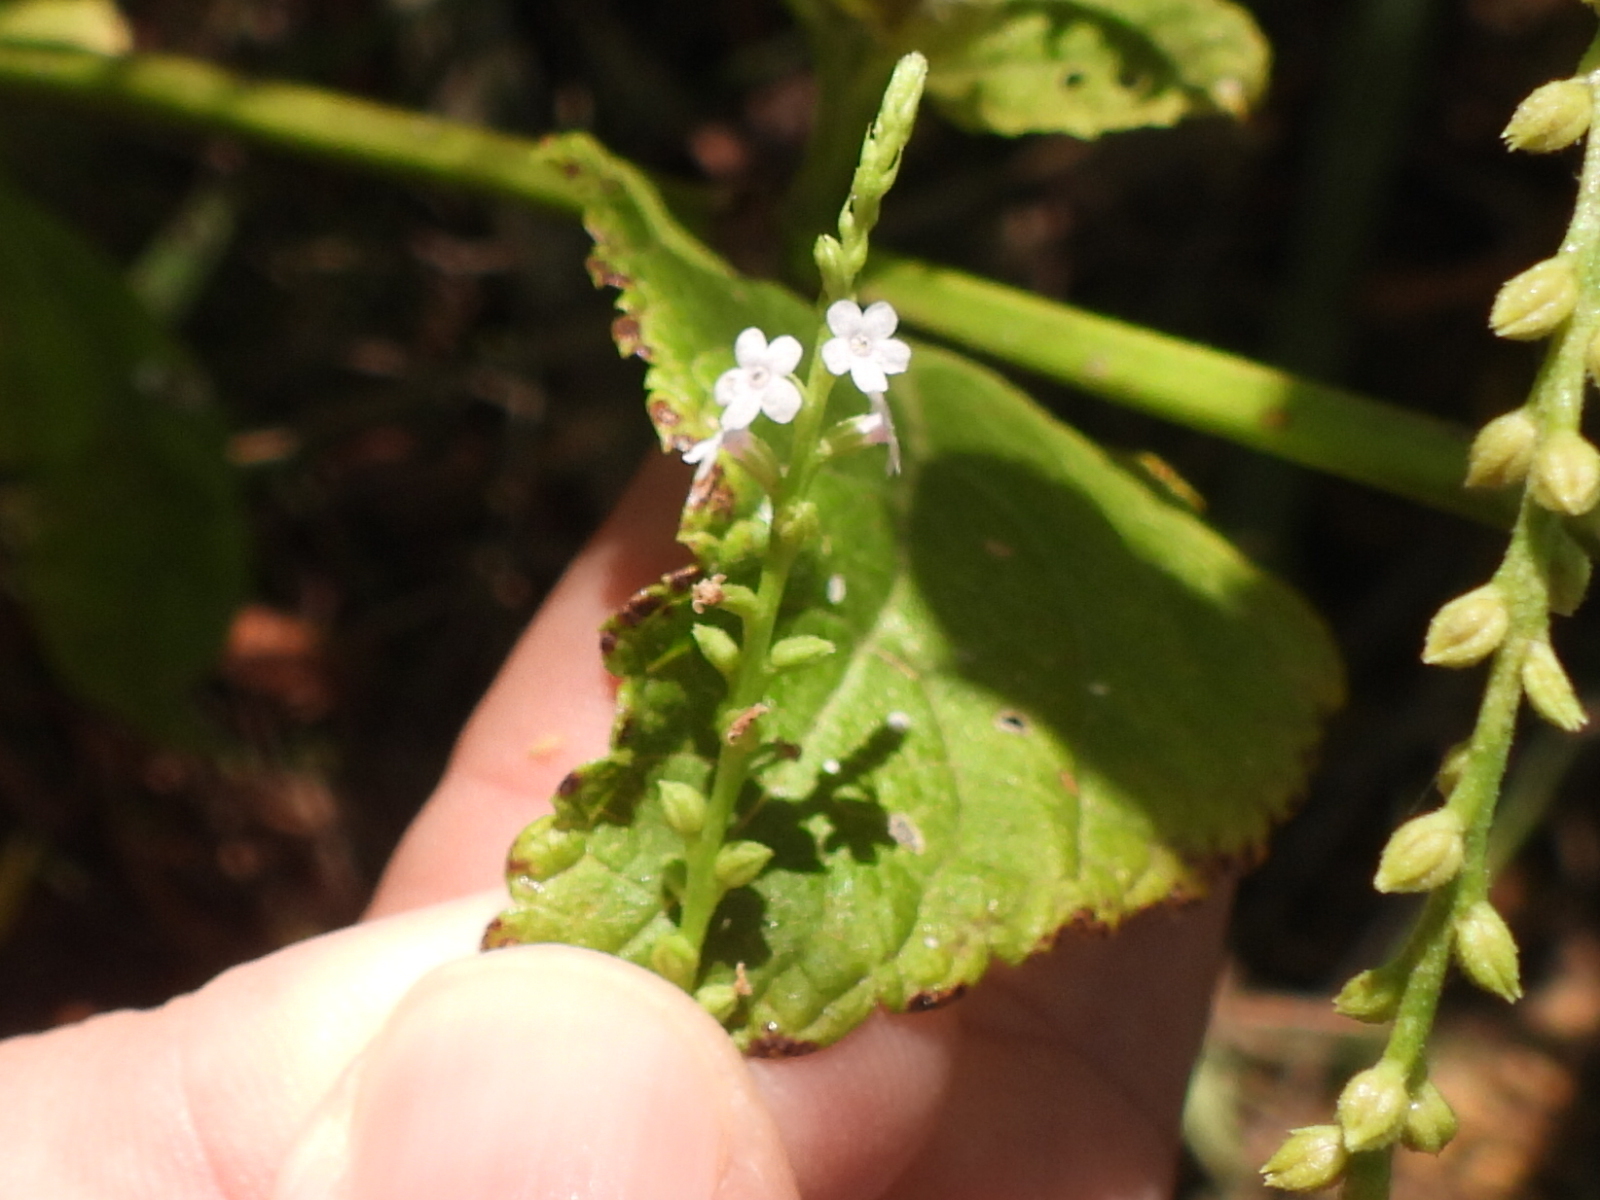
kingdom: Plantae
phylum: Tracheophyta
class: Magnoliopsida
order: Lamiales
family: Verbenaceae
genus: Verbena
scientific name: Verbena scabra
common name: Sandpaper vervain
